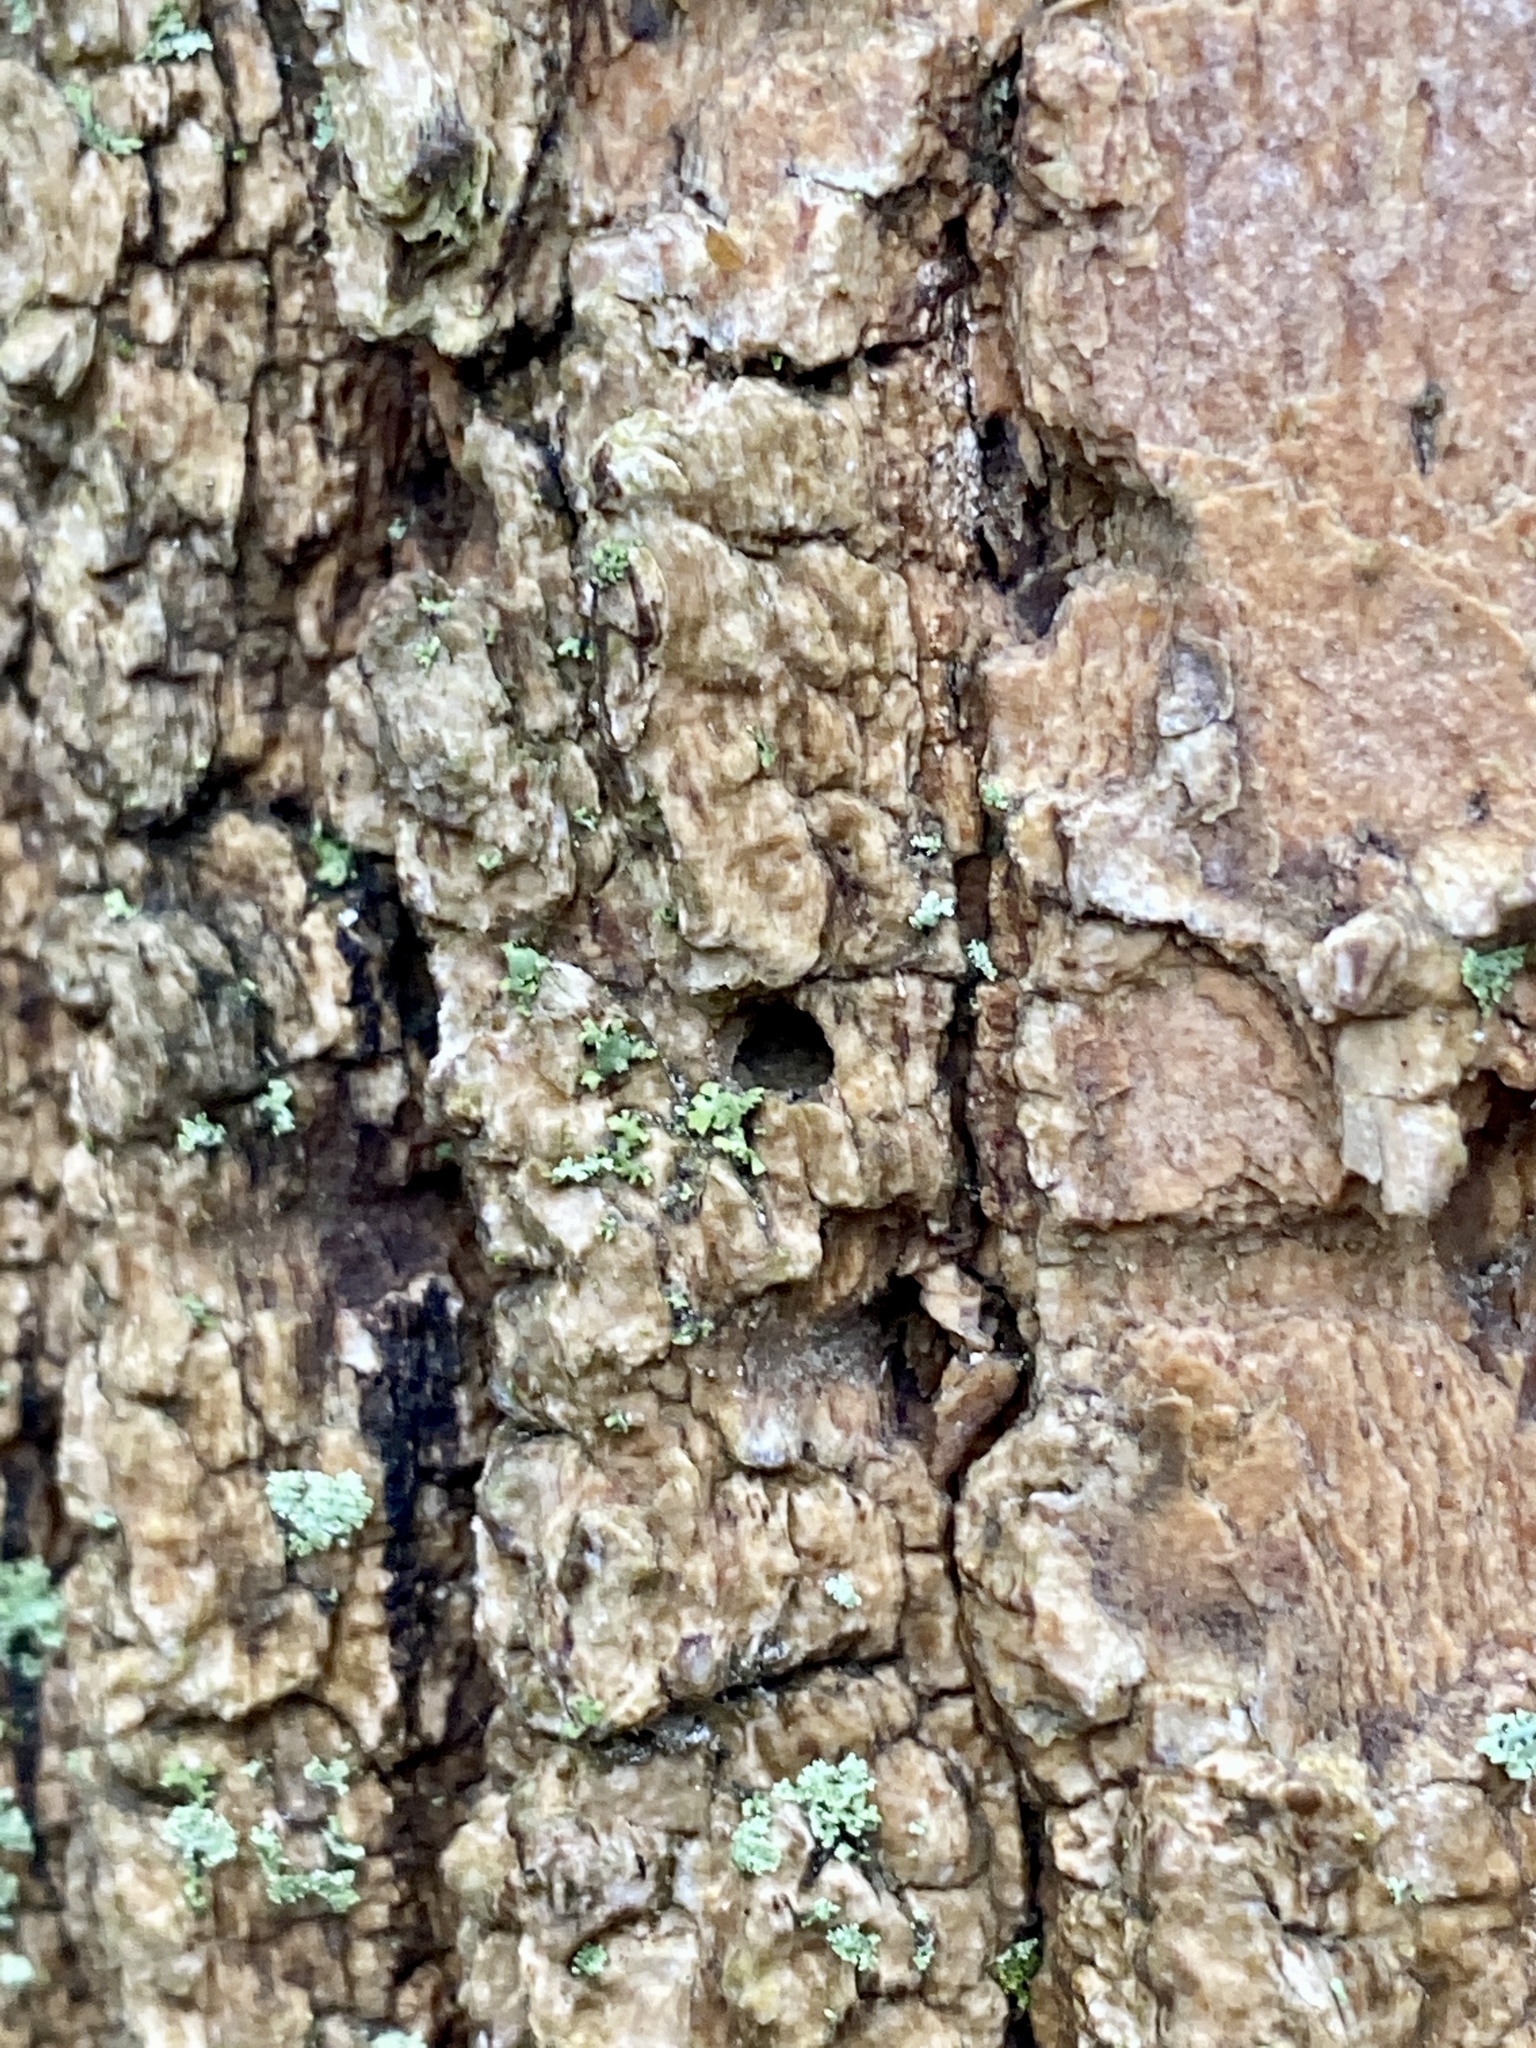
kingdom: Animalia
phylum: Arthropoda
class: Insecta
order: Coleoptera
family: Buprestidae
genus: Agrilus
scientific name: Agrilus planipennis
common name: Emerald ash borer
